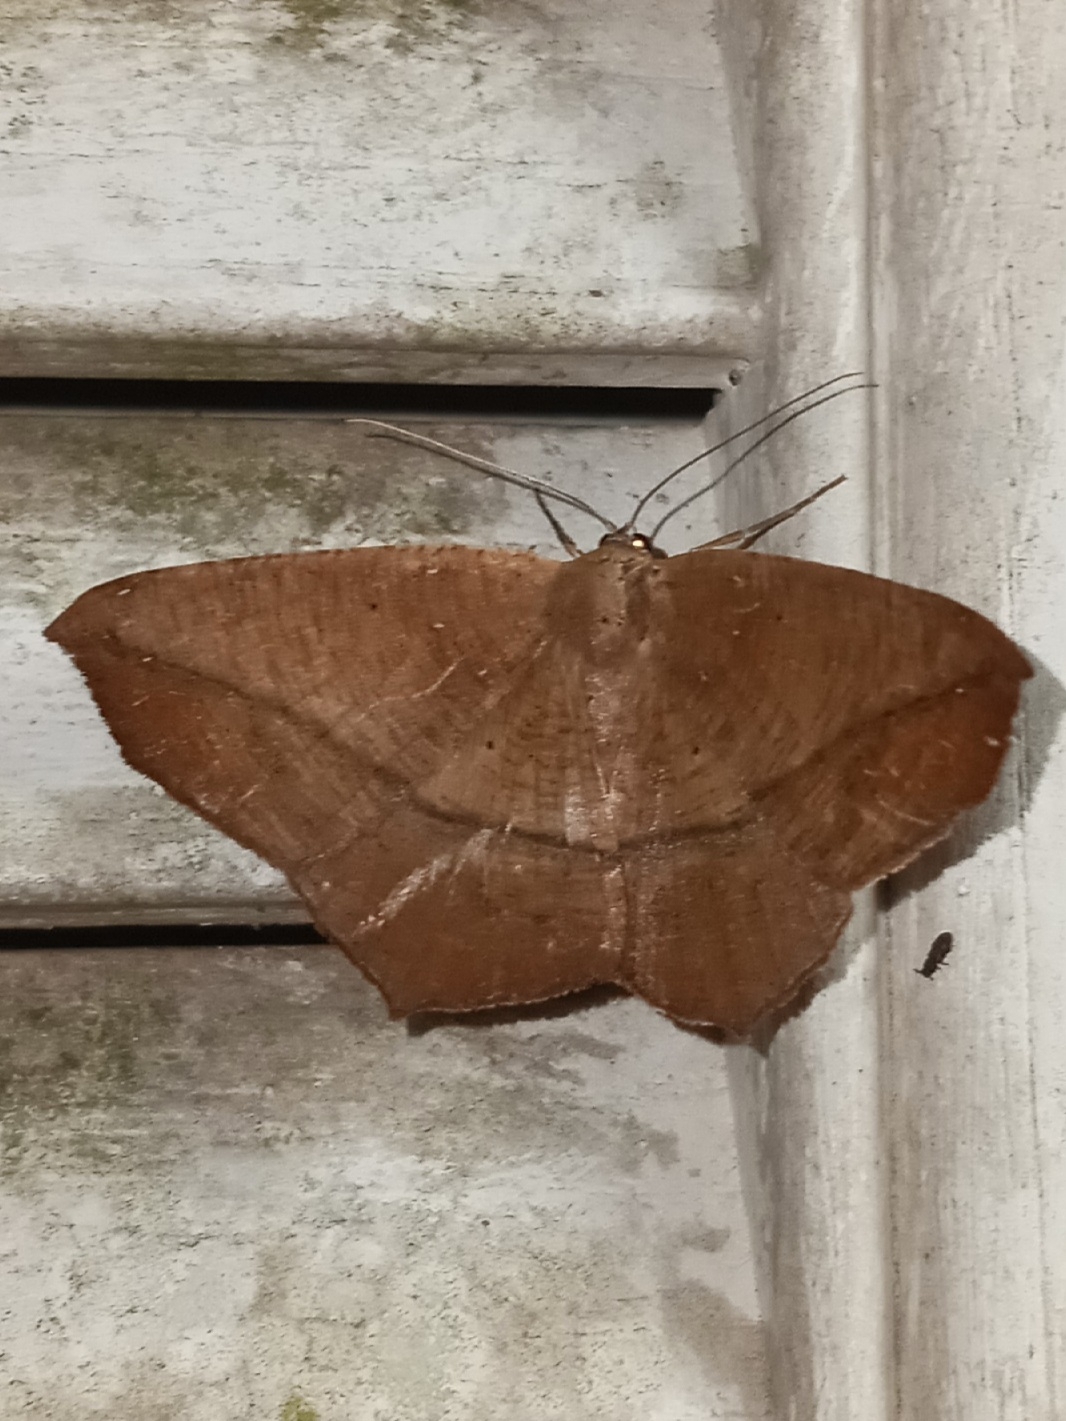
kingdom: Animalia
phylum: Arthropoda
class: Insecta
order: Lepidoptera
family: Geometridae
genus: Prochoerodes
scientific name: Prochoerodes lineola
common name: Large maple spanworm
